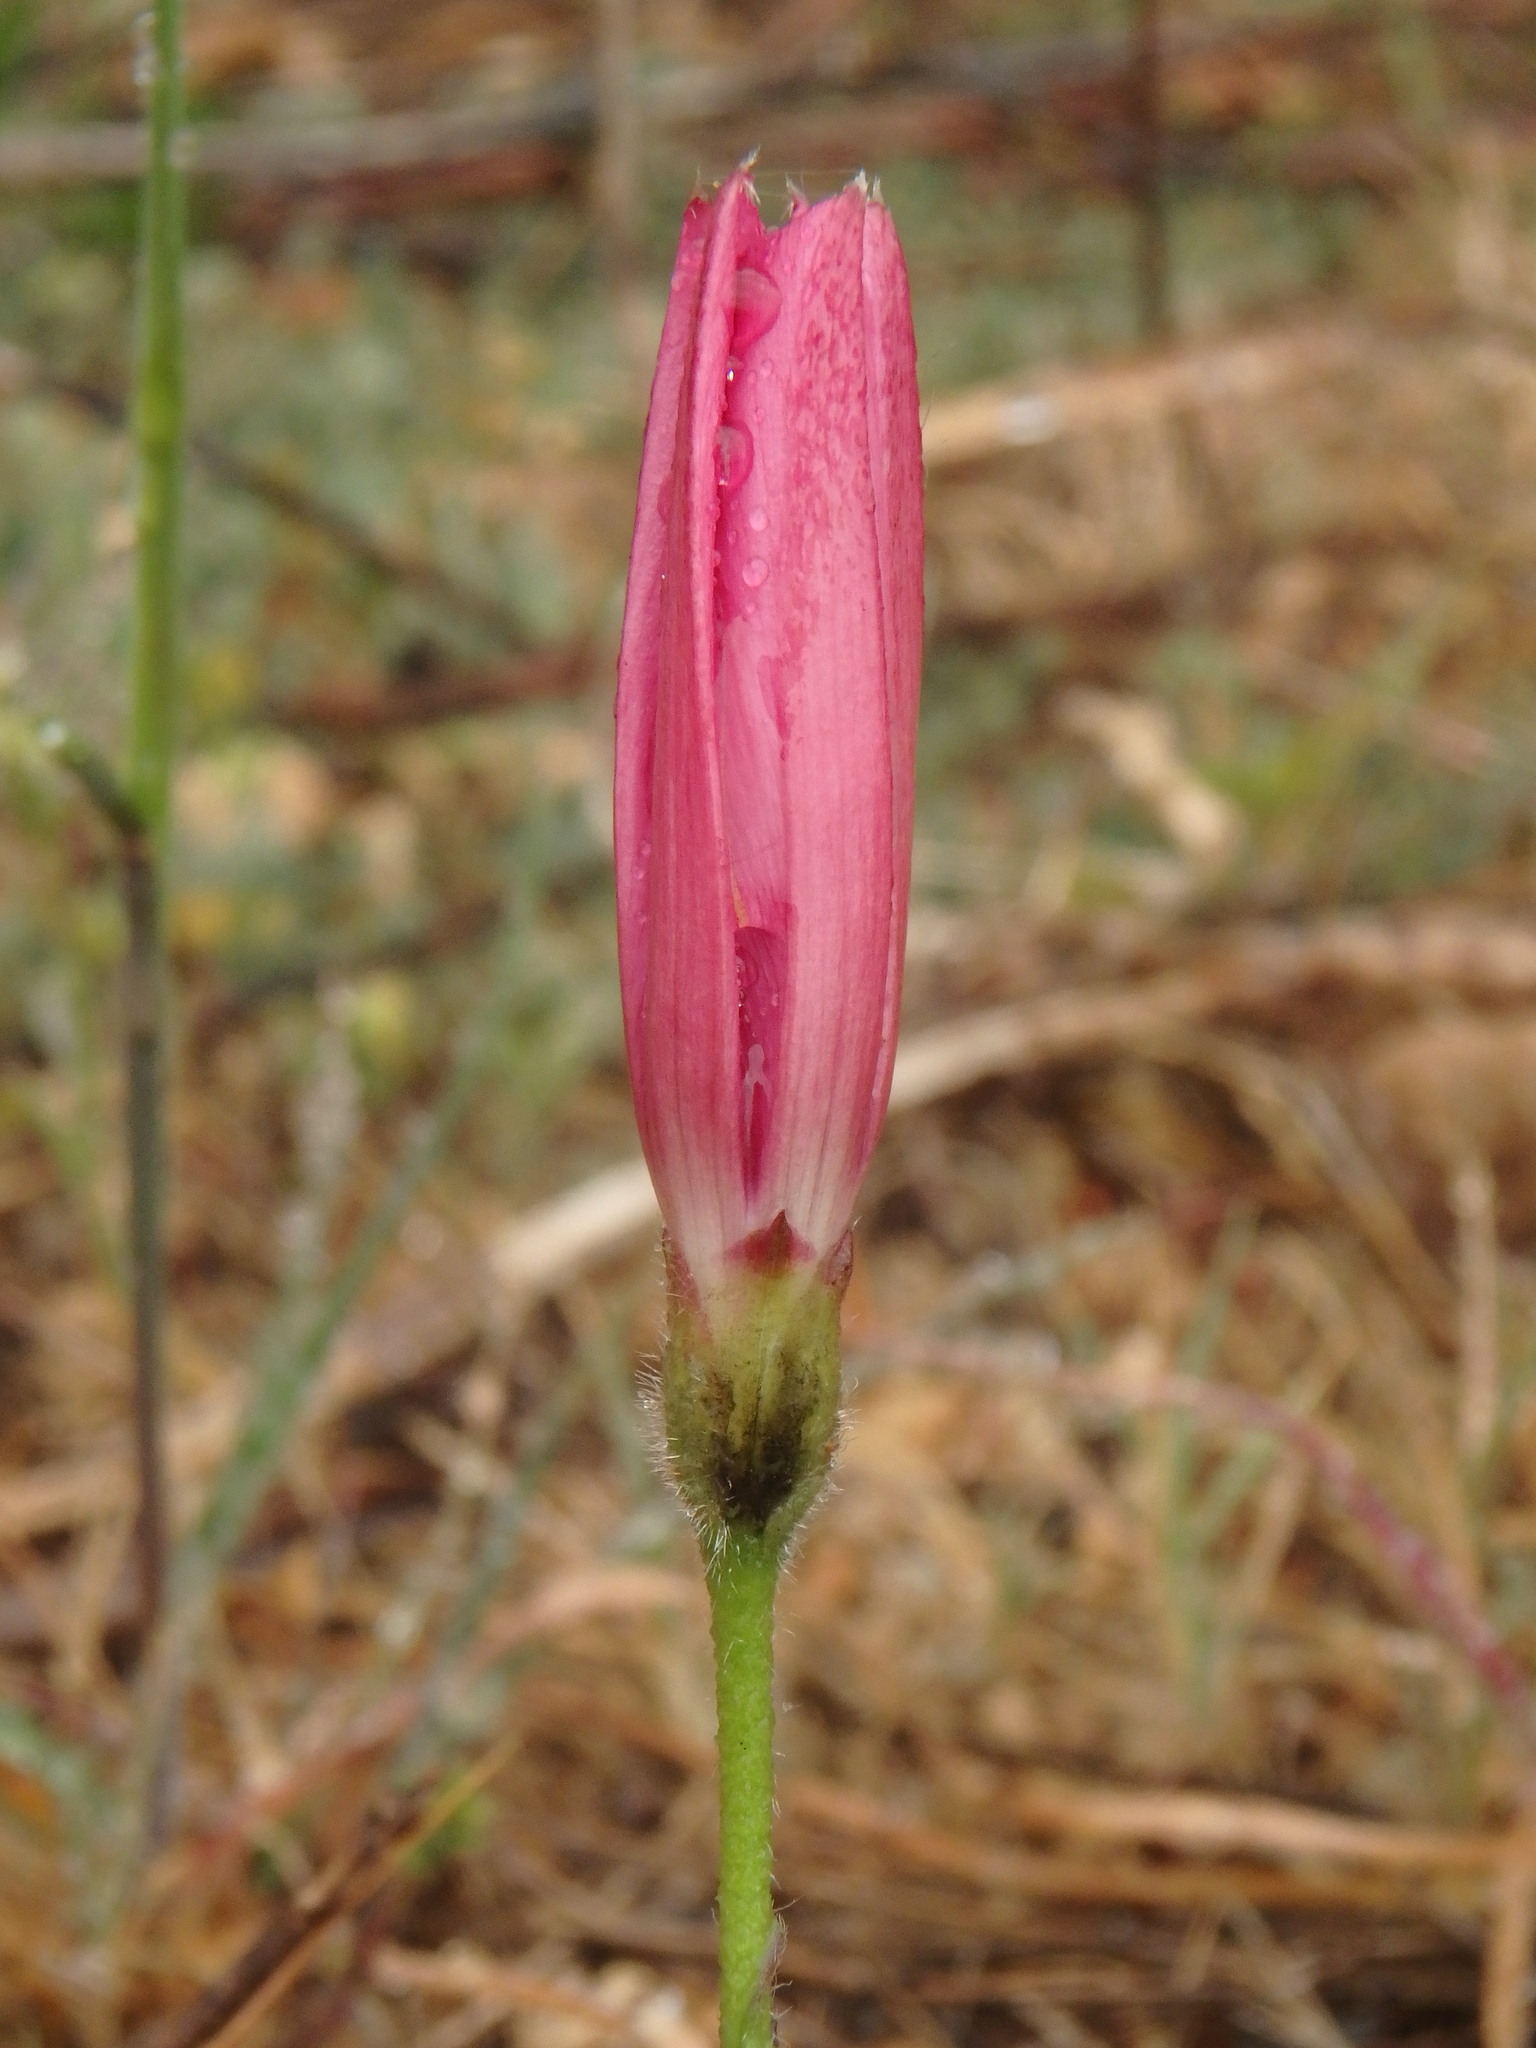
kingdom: Plantae
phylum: Tracheophyta
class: Magnoliopsida
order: Solanales
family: Convolvulaceae
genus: Convolvulus
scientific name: Convolvulus althaeoides
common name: Mallow bindweed
